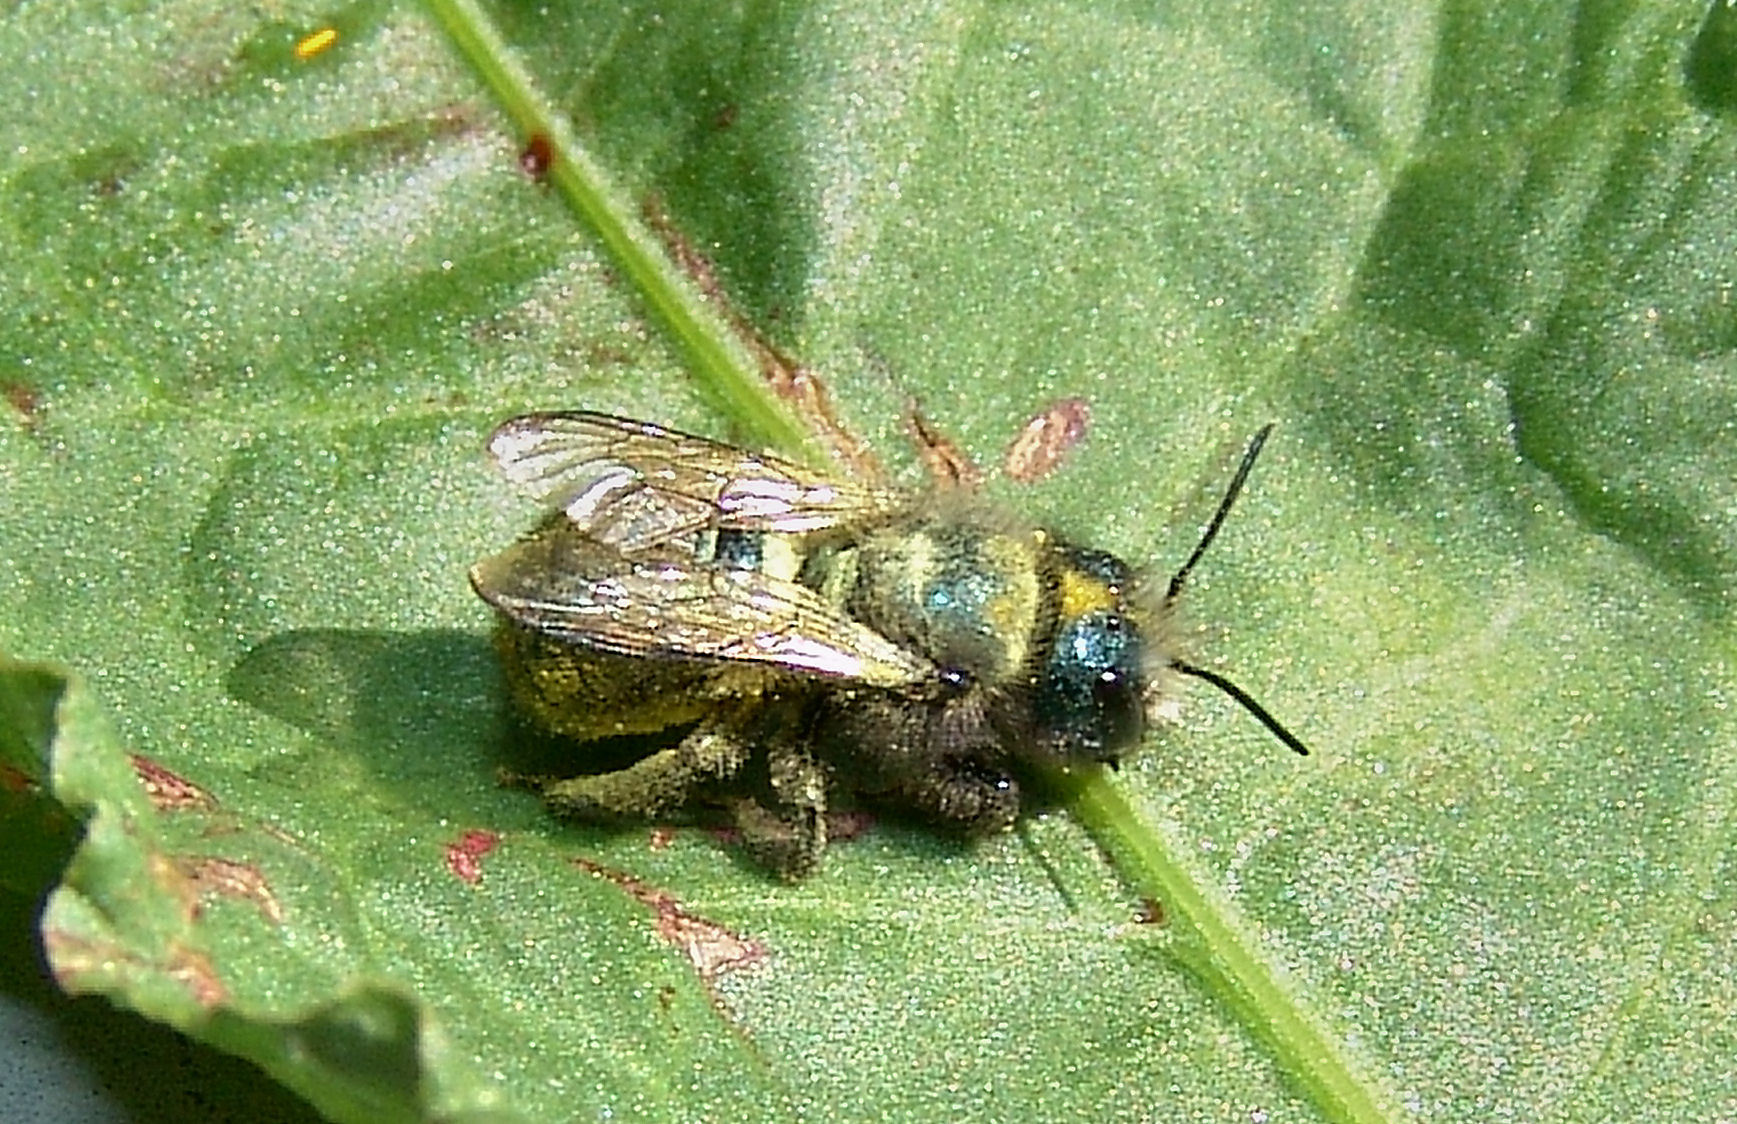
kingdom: Animalia
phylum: Arthropoda
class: Insecta
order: Hymenoptera
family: Megachilidae
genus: Osmia
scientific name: Osmia lignaria
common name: Blue orchard bee
